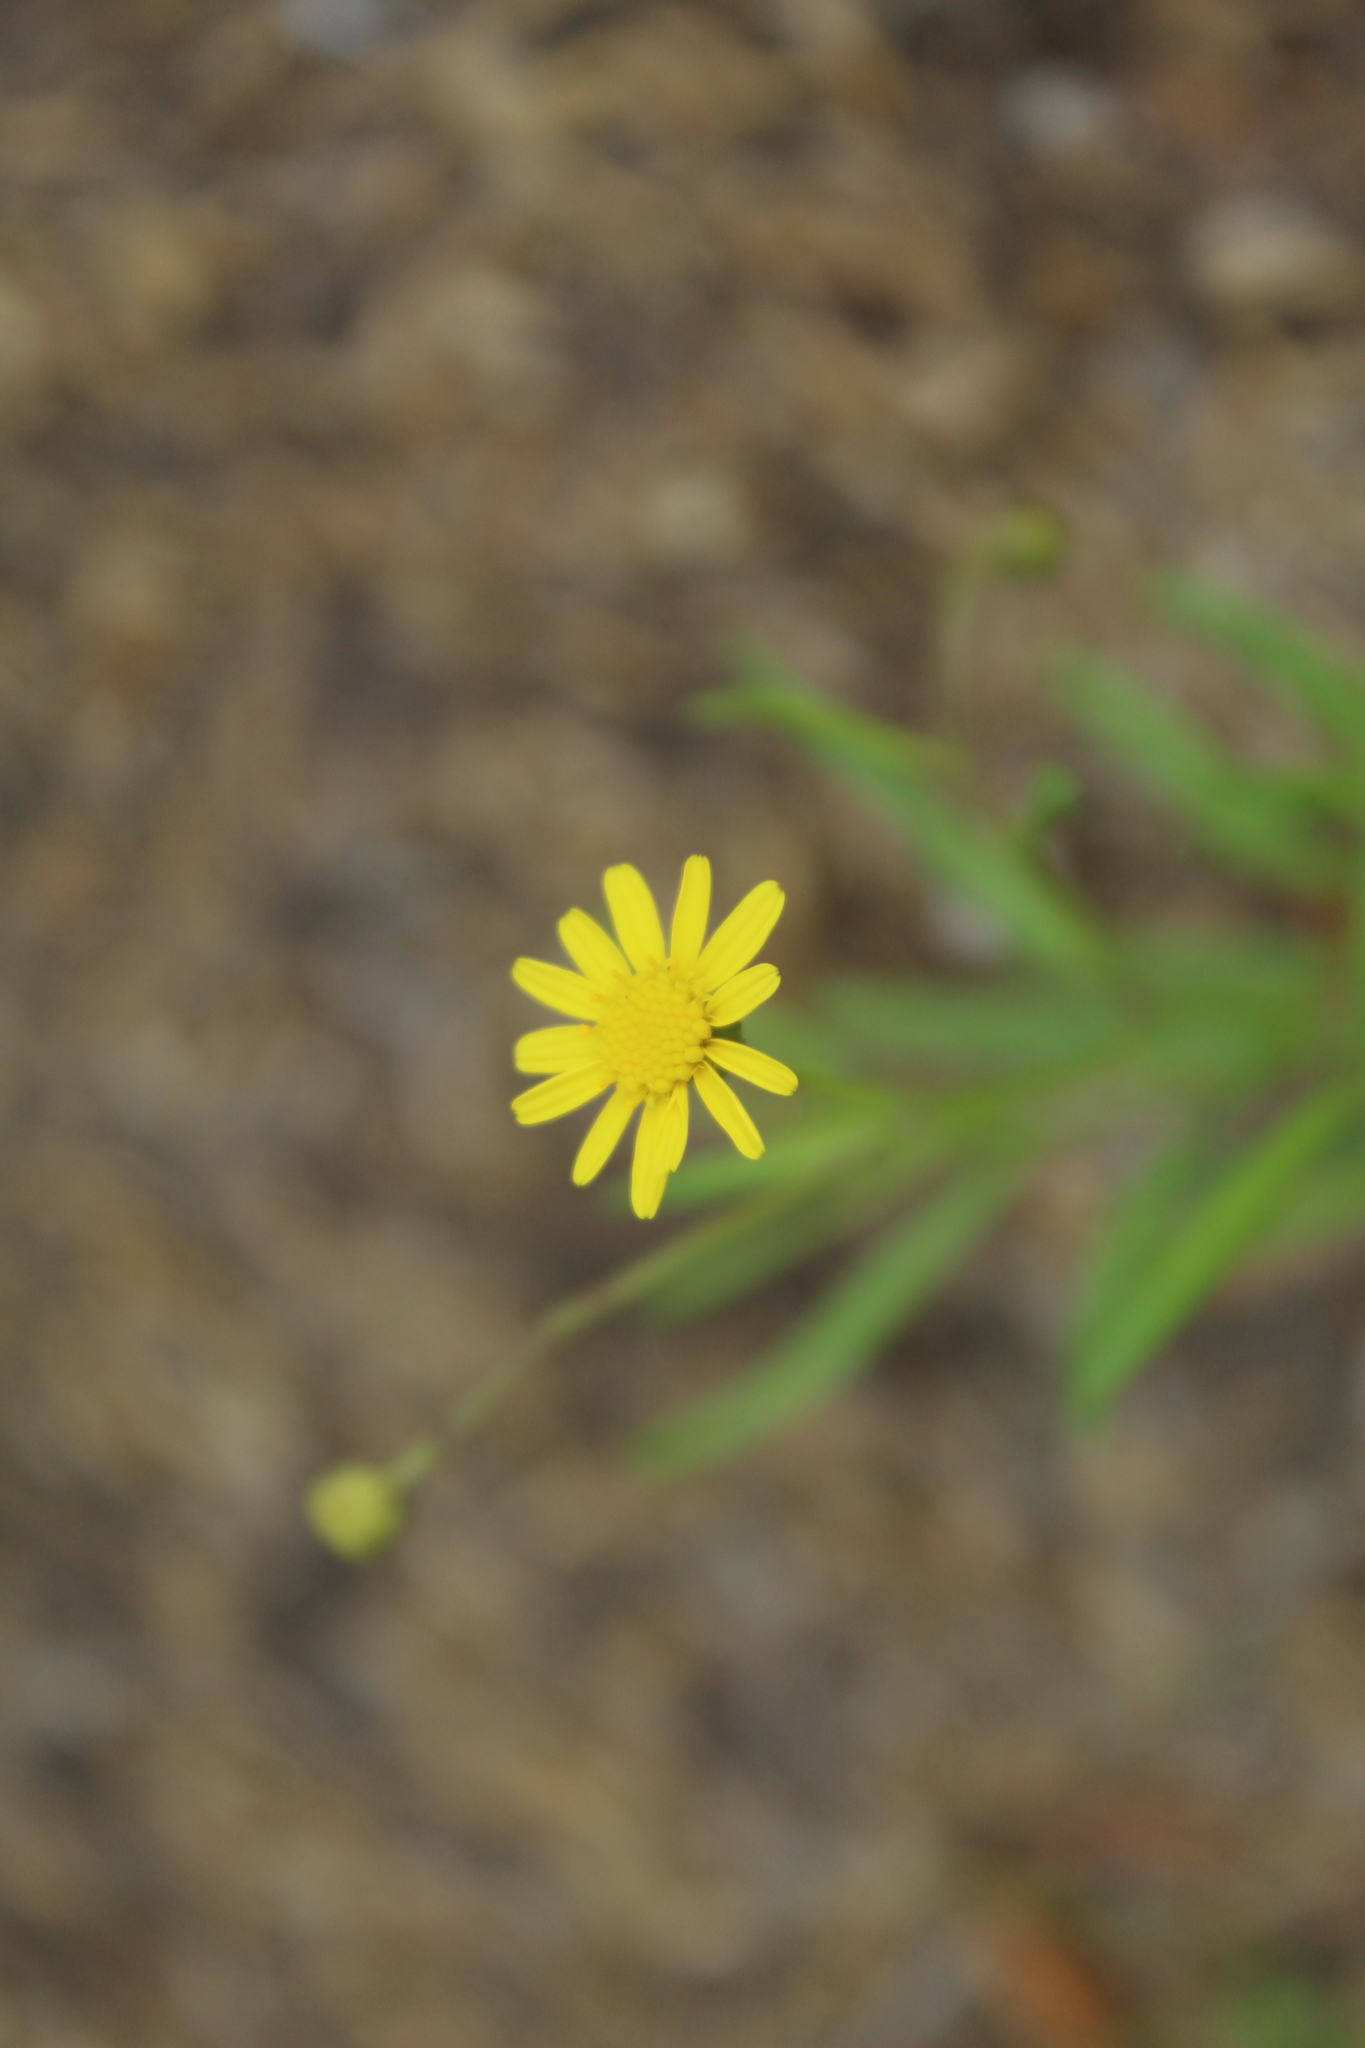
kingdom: Plantae
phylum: Tracheophyta
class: Magnoliopsida
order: Asterales
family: Asteraceae
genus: Senecio
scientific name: Senecio madagascariensis
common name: Madagascar ragwort
